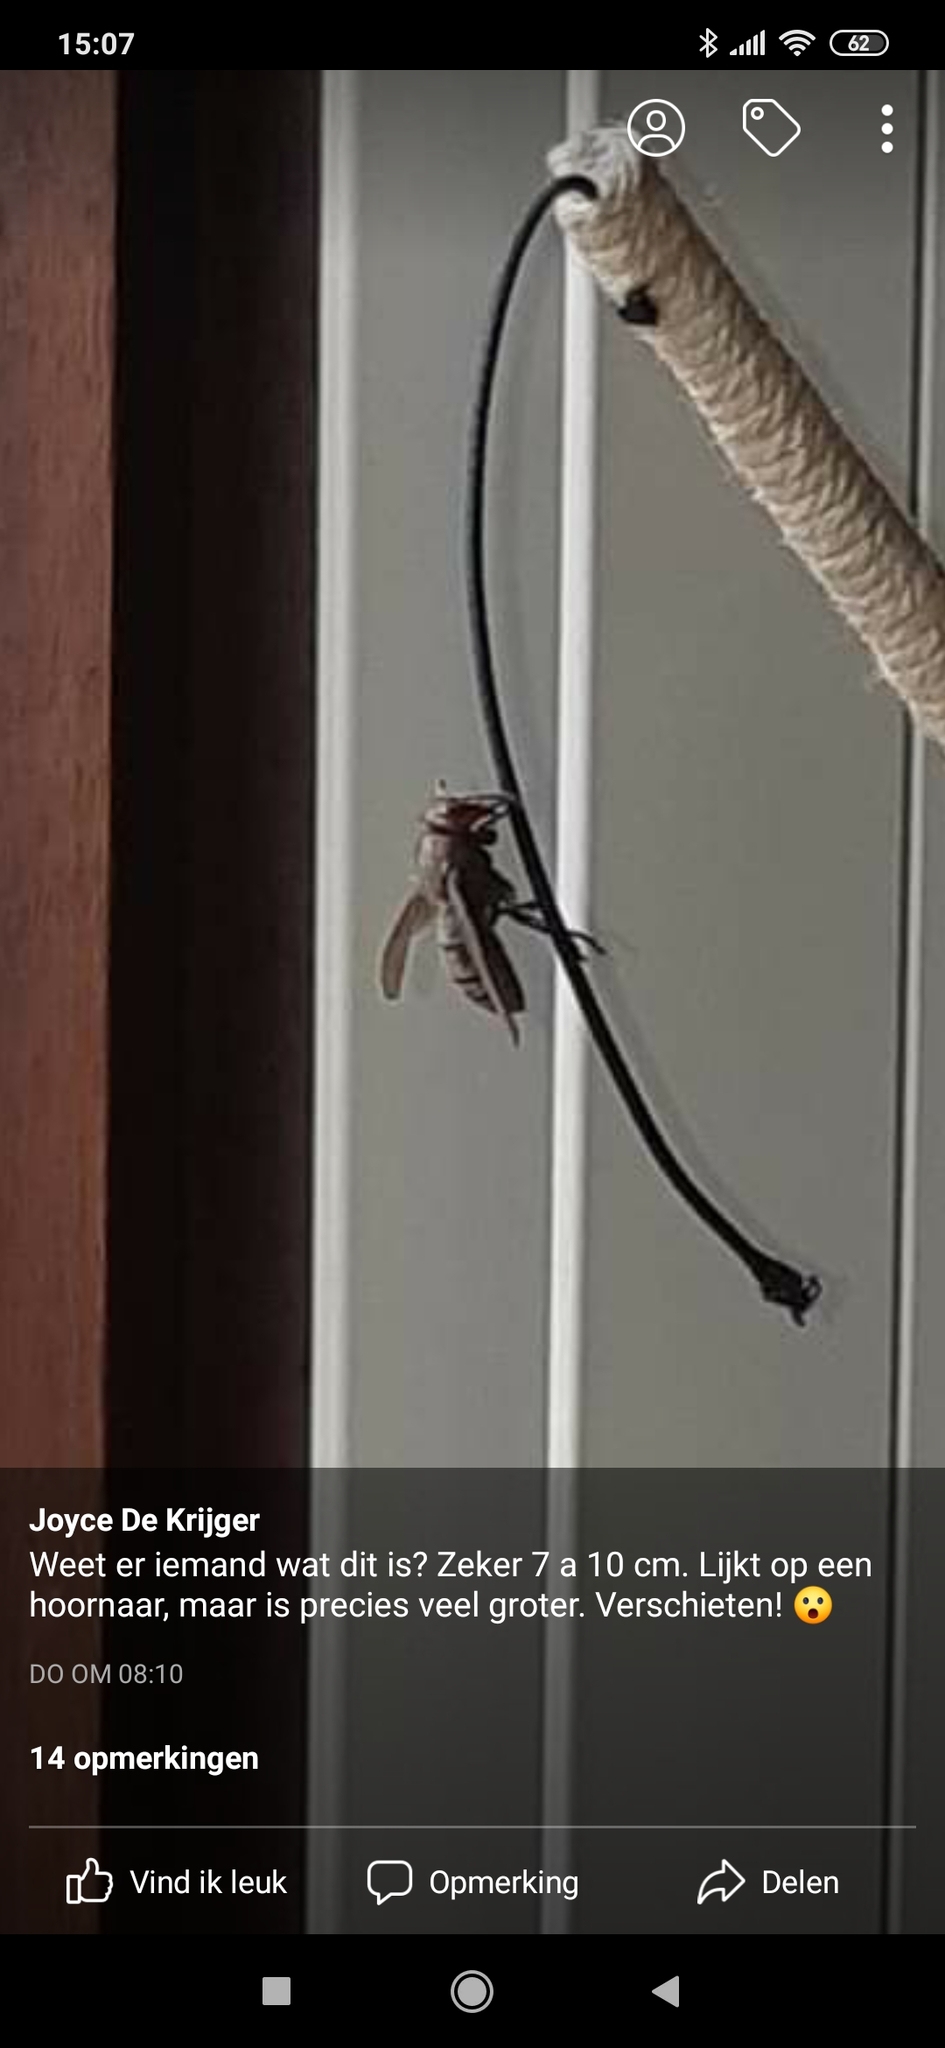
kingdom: Animalia
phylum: Arthropoda
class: Insecta
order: Hymenoptera
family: Vespidae
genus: Vespa
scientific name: Vespa crabro
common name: Hornet
